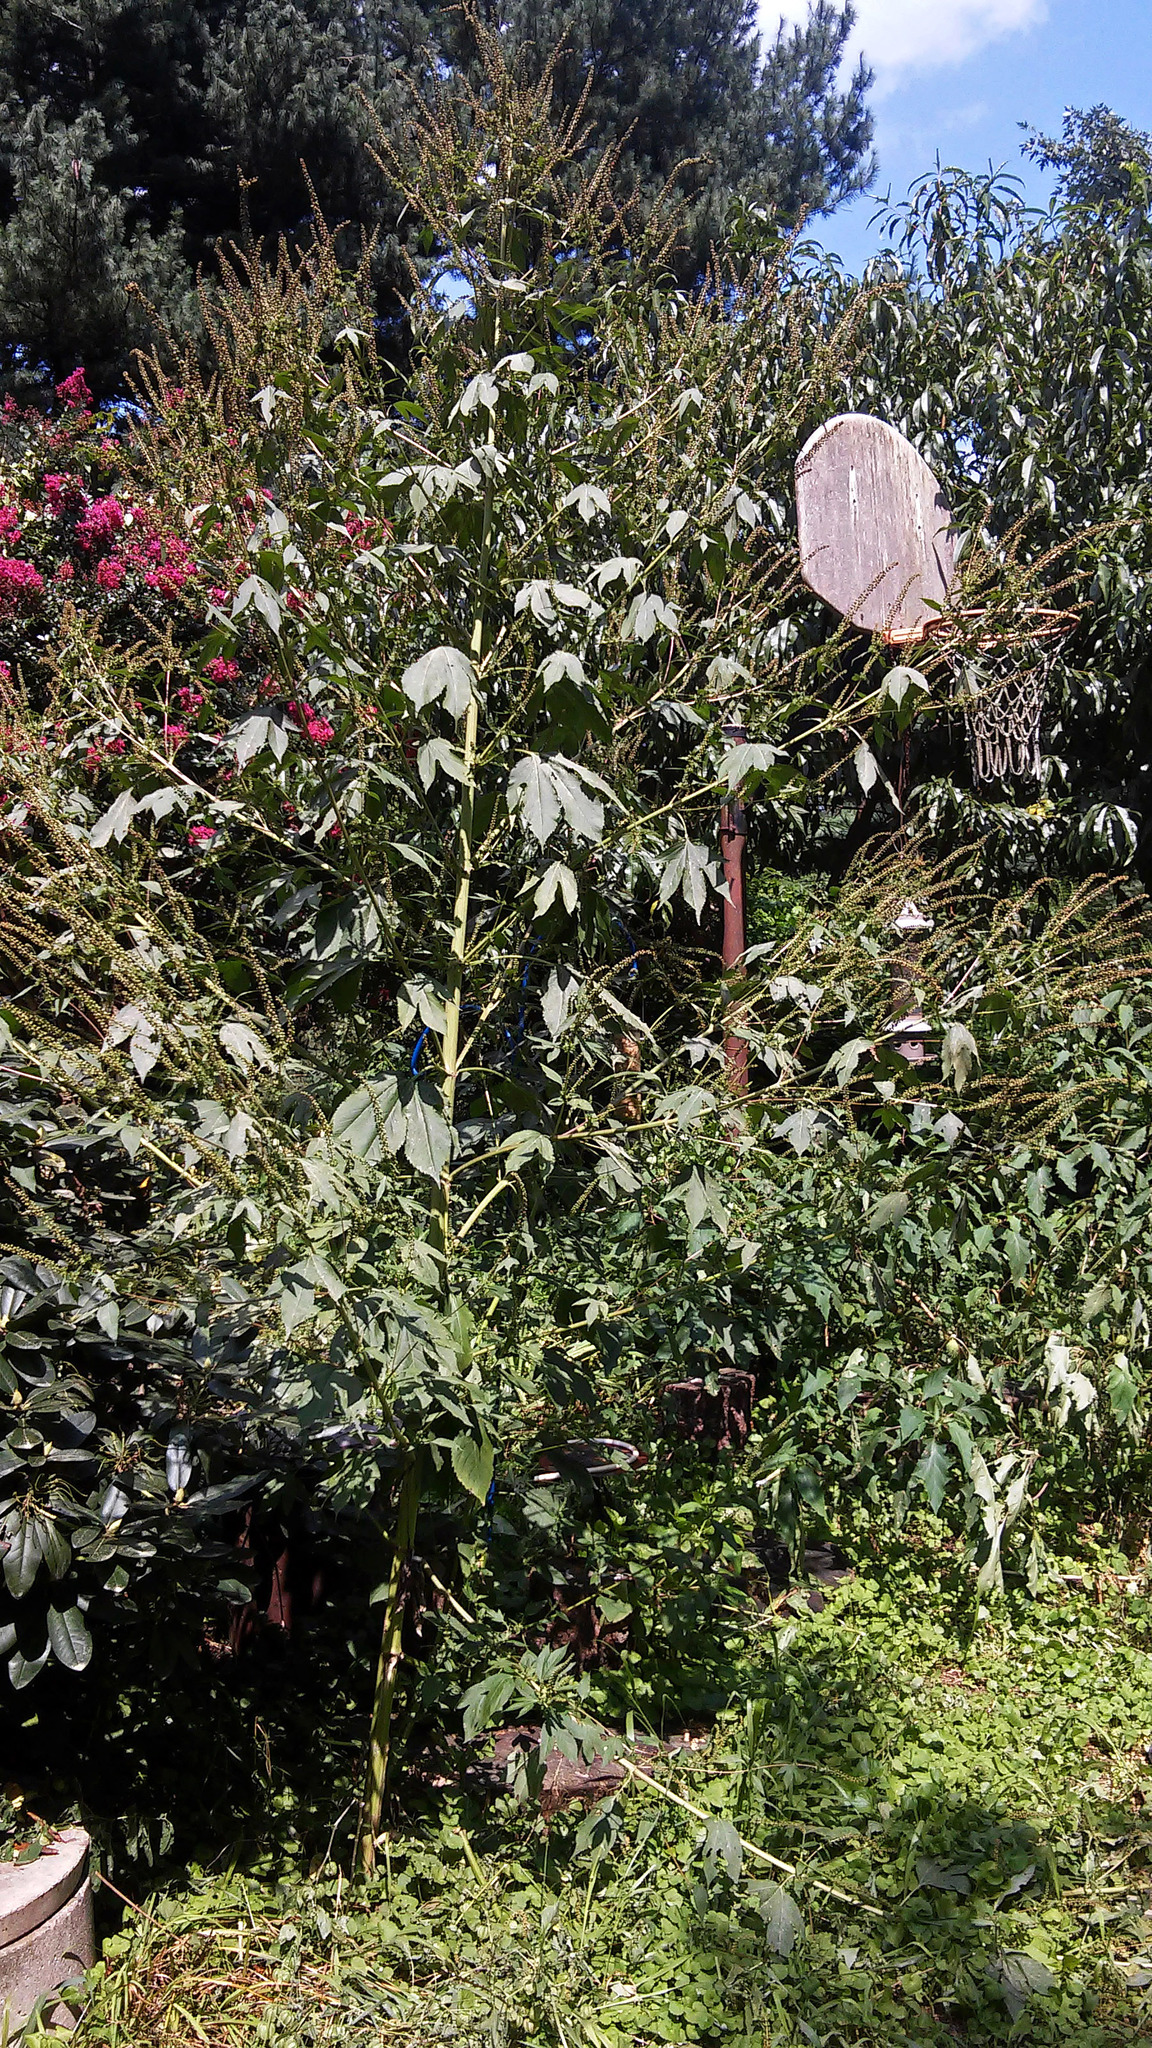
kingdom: Plantae
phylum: Tracheophyta
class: Magnoliopsida
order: Asterales
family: Asteraceae
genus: Ambrosia
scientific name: Ambrosia trifida
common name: Giant ragweed
